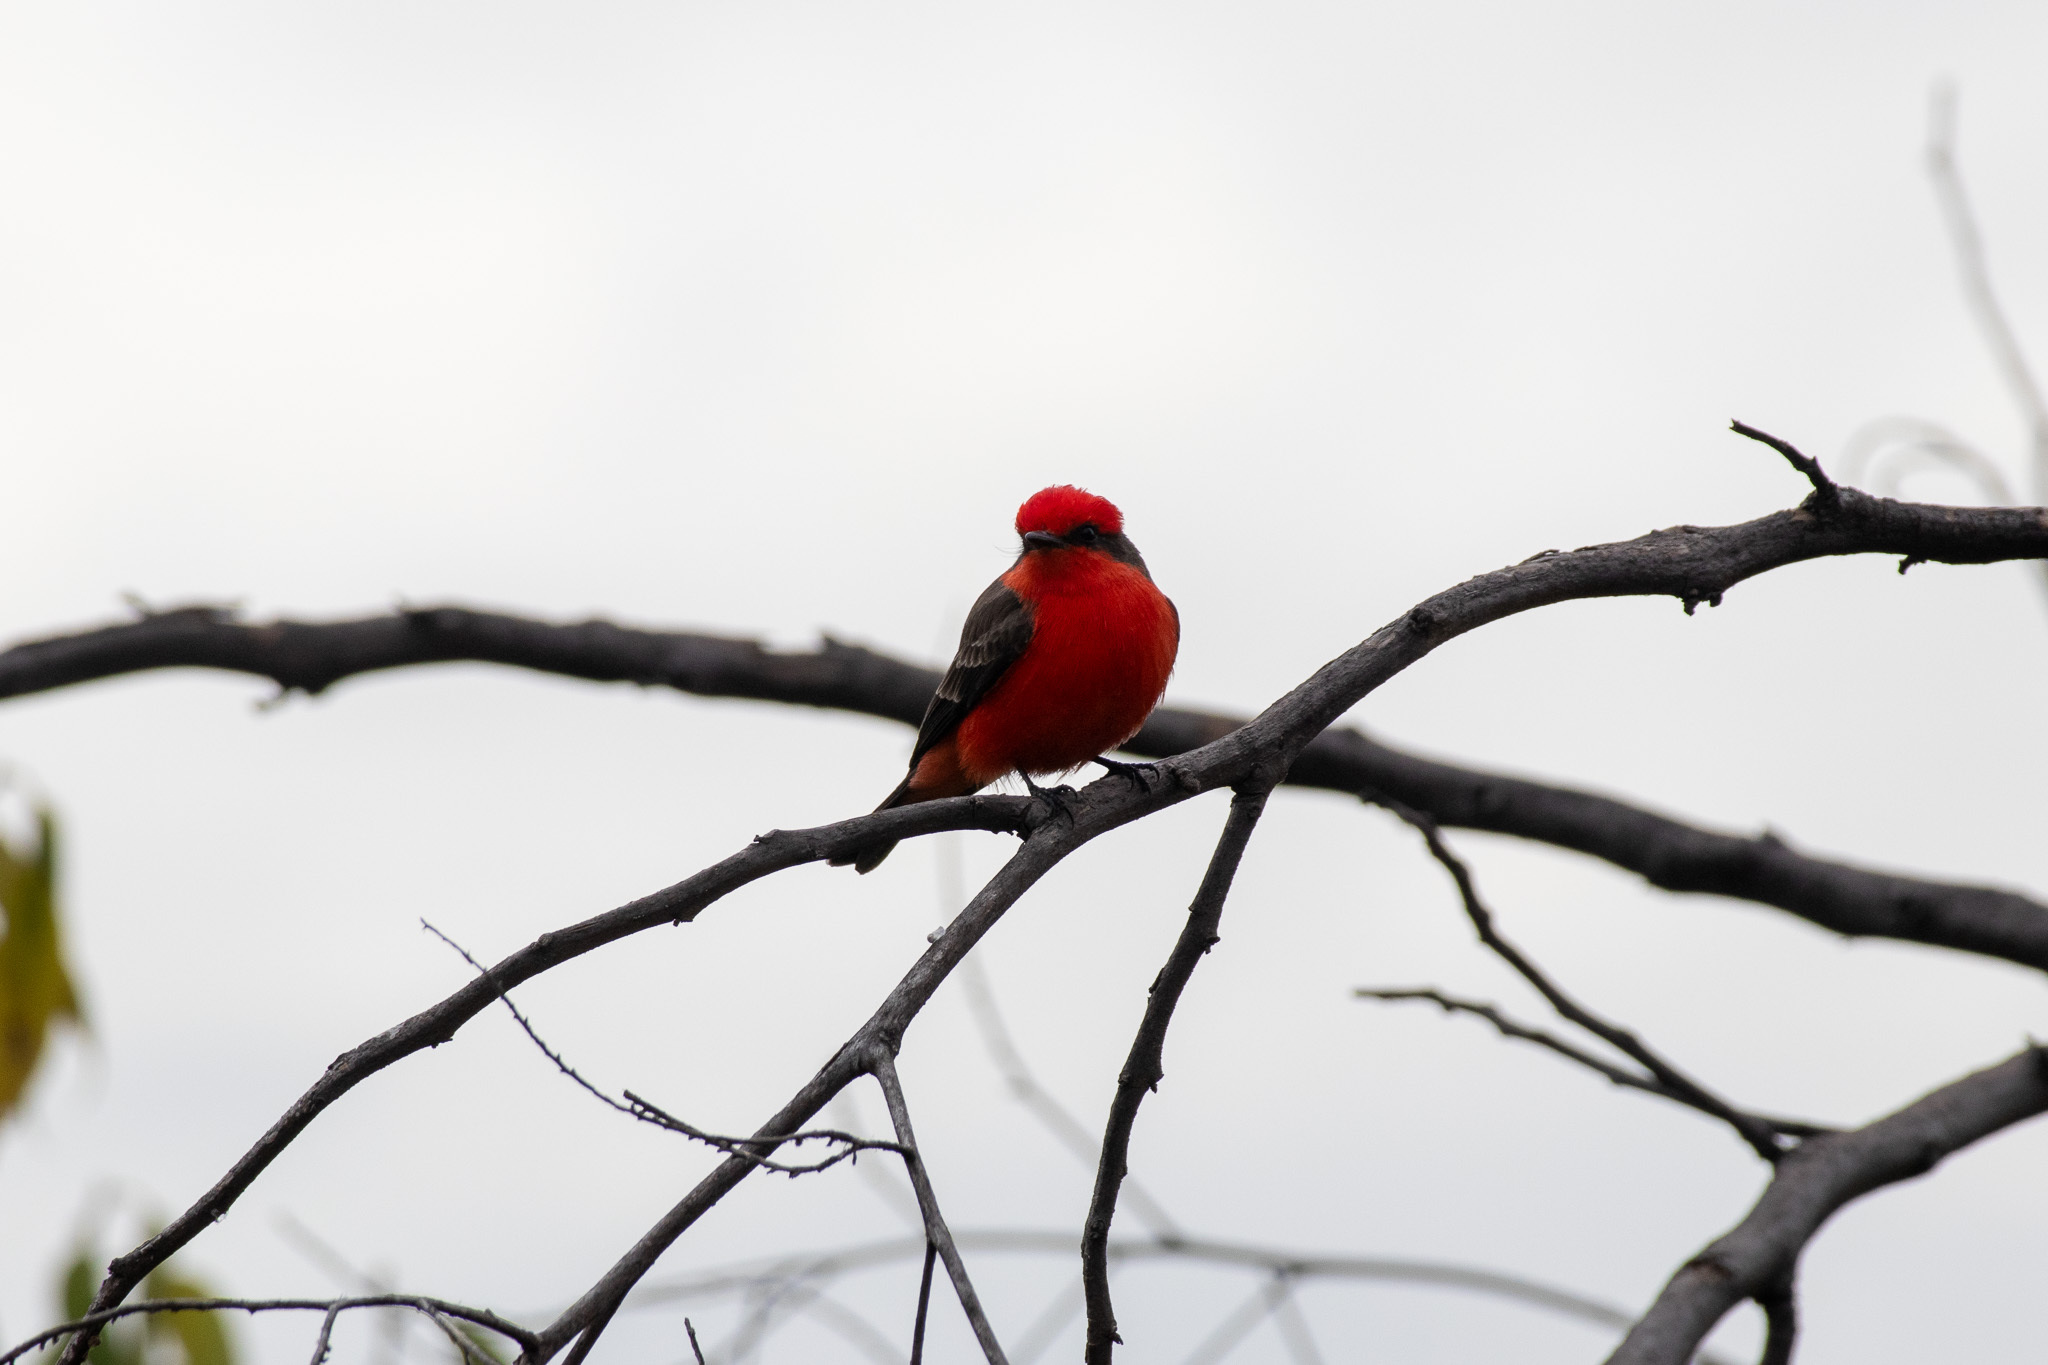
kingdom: Animalia
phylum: Chordata
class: Aves
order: Passeriformes
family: Tyrannidae
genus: Pyrocephalus
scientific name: Pyrocephalus rubinus
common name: Vermilion flycatcher
